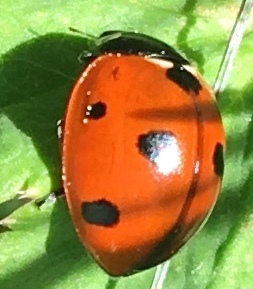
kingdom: Animalia
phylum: Arthropoda
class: Insecta
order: Coleoptera
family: Coccinellidae
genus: Coccinella
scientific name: Coccinella septempunctata
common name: Sevenspotted lady beetle
